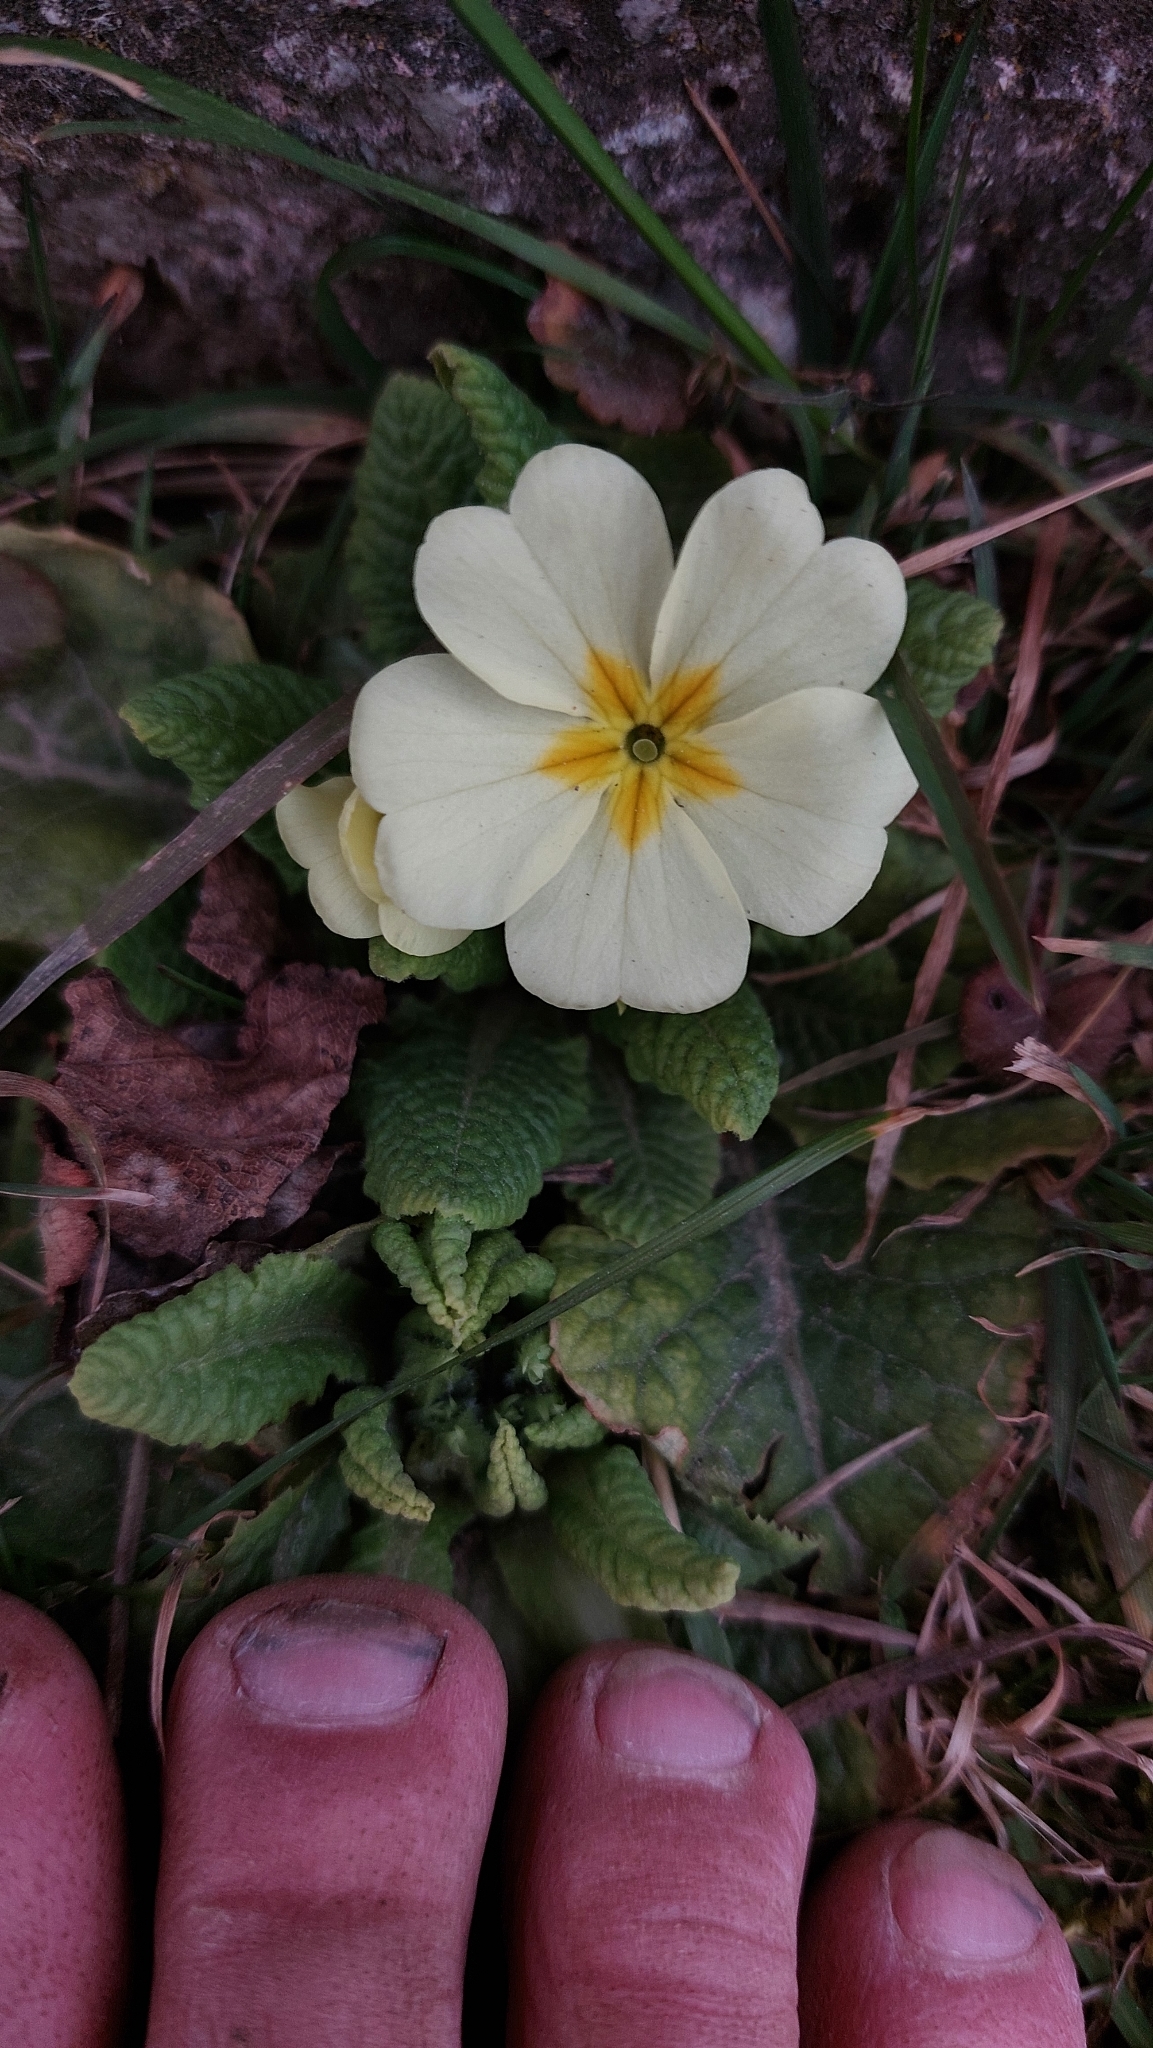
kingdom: Plantae
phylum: Tracheophyta
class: Magnoliopsida
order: Ericales
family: Primulaceae
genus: Primula
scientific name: Primula vulgaris
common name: Primrose
